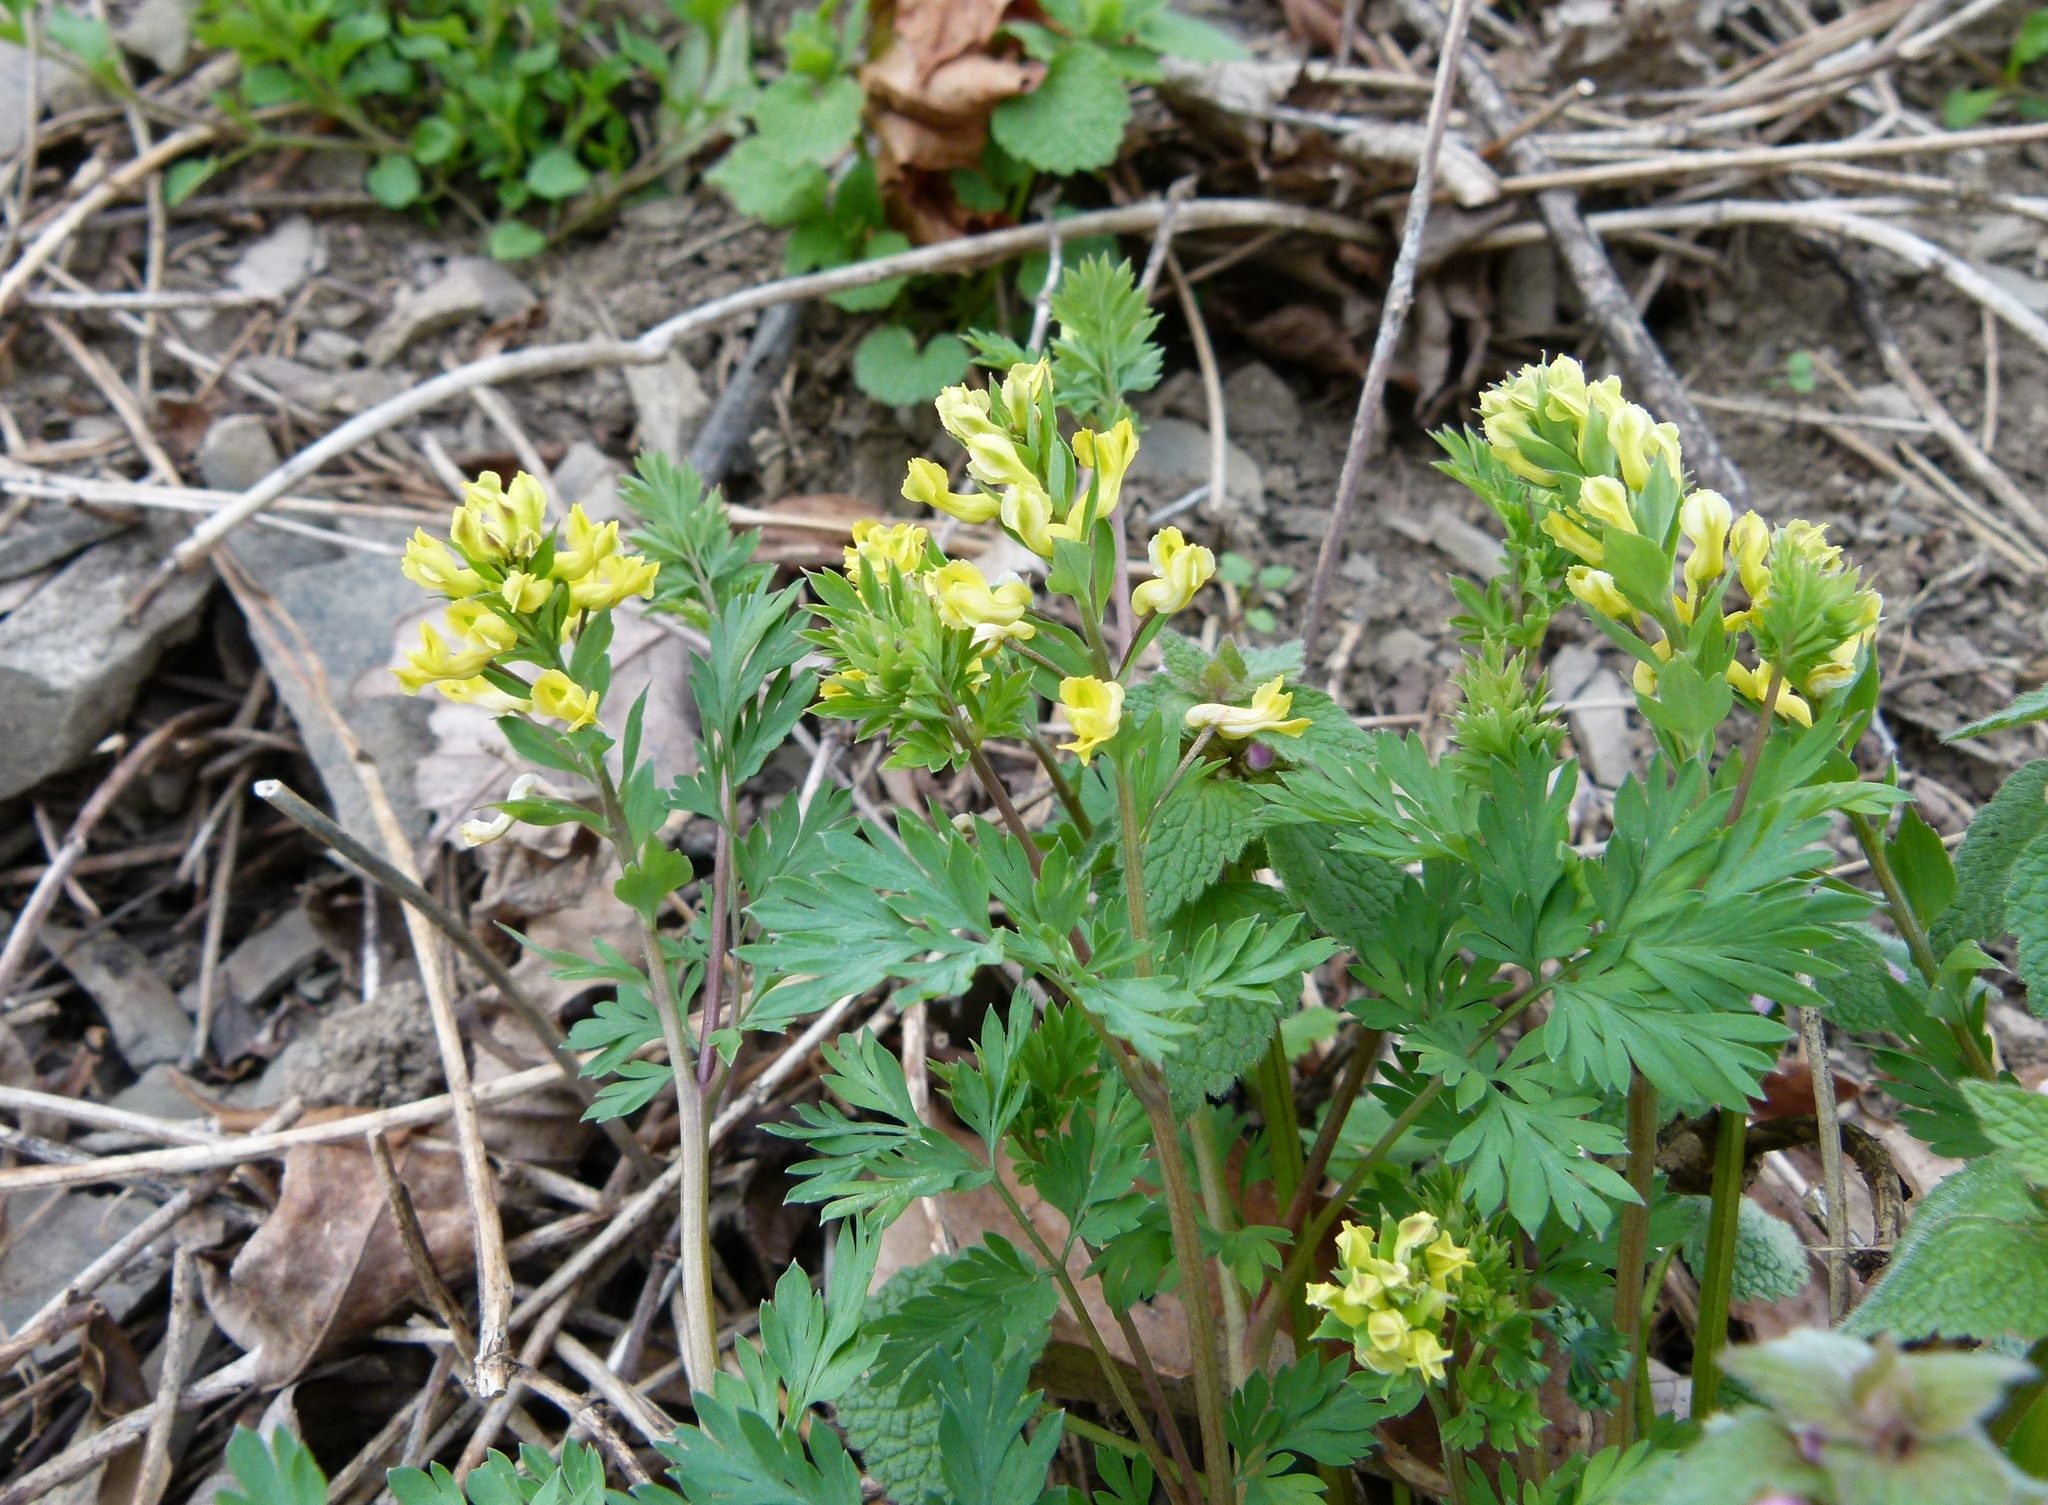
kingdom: Plantae
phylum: Tracheophyta
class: Magnoliopsida
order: Ranunculales
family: Papaveraceae
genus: Corydalis
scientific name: Corydalis flavula
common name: Yellow corydalis
